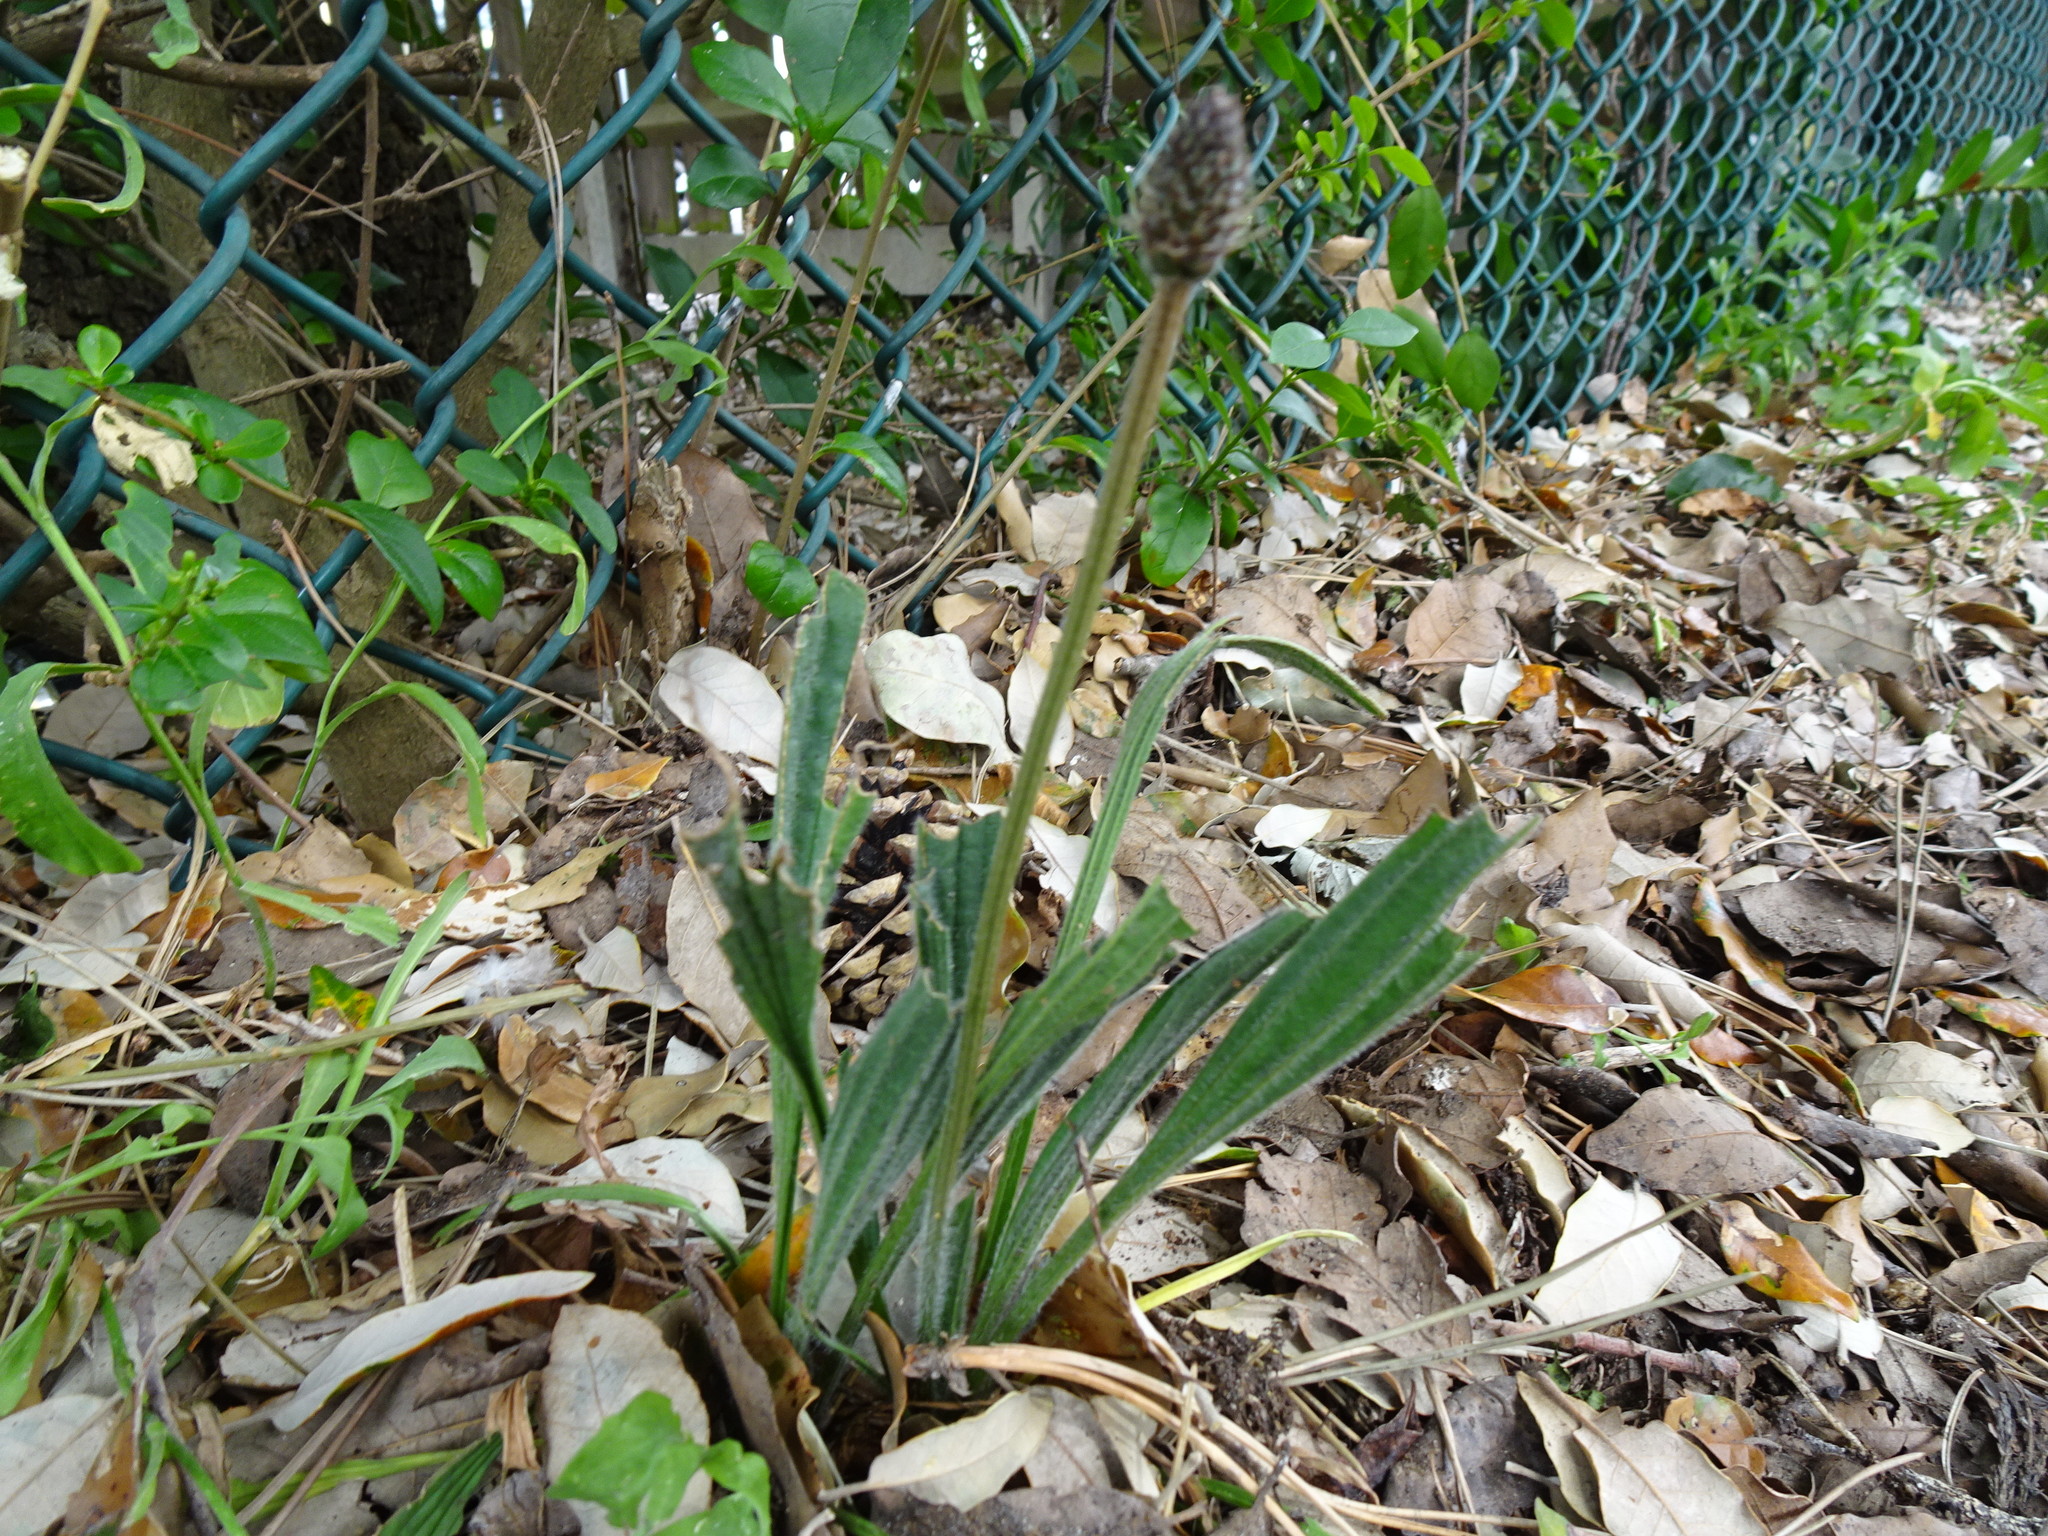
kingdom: Plantae
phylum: Tracheophyta
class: Magnoliopsida
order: Lamiales
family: Plantaginaceae
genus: Plantago
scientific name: Plantago lanceolata
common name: Ribwort plantain
